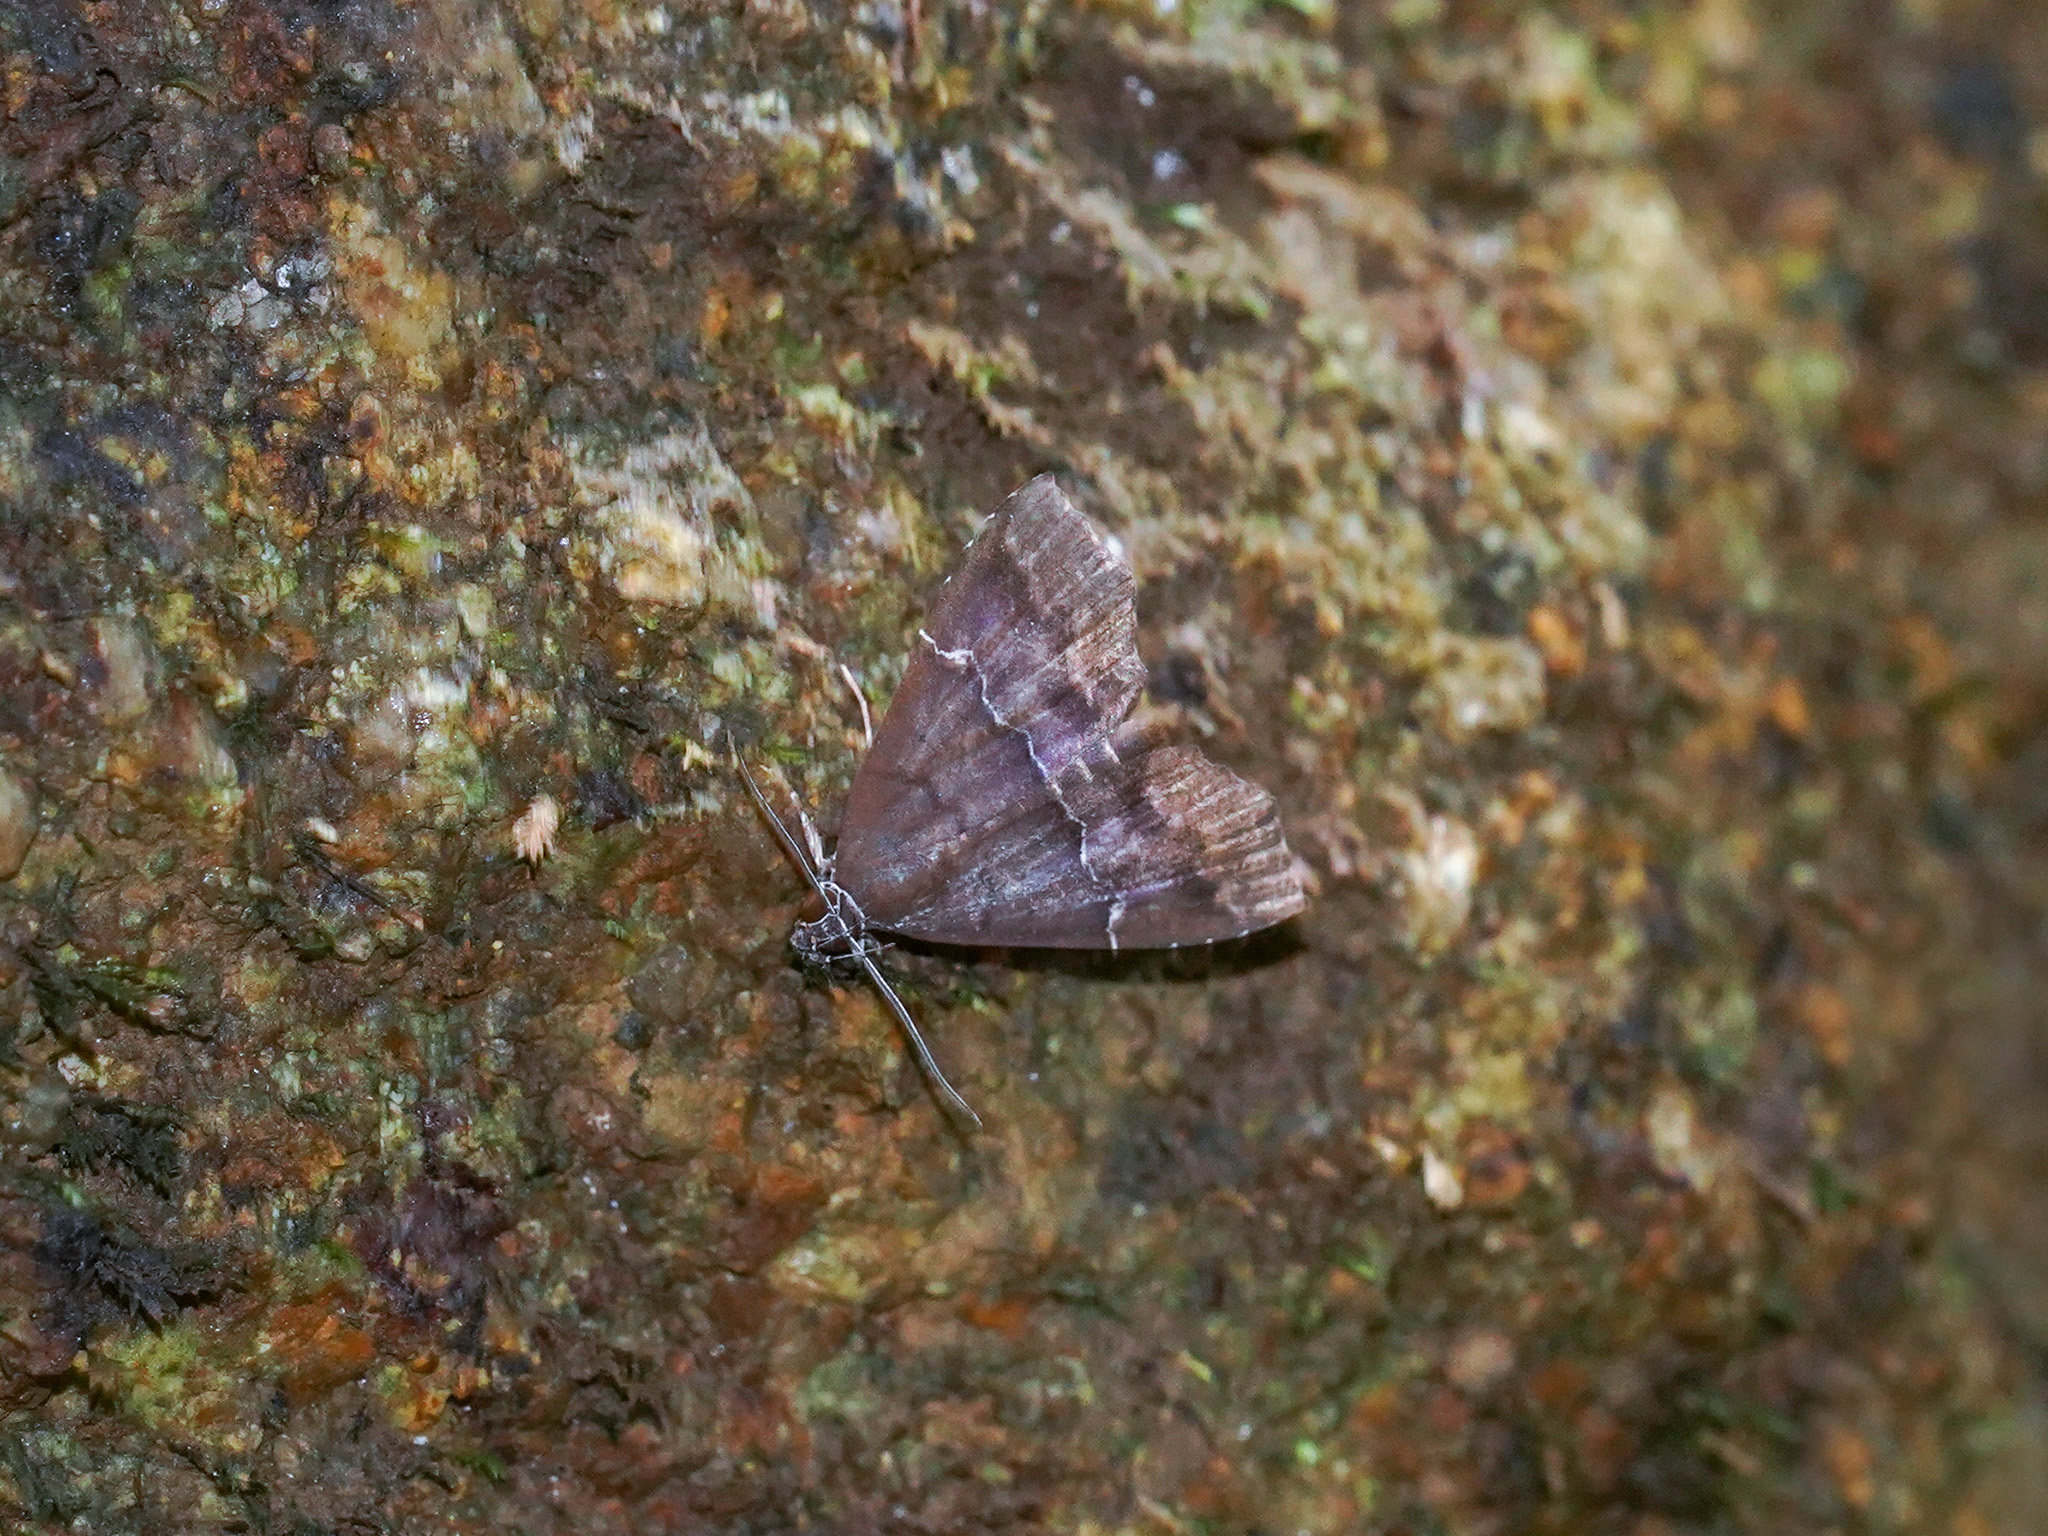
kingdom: Animalia
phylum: Arthropoda
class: Insecta
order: Lepidoptera
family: Erebidae
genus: Catada
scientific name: Catada transversalis
